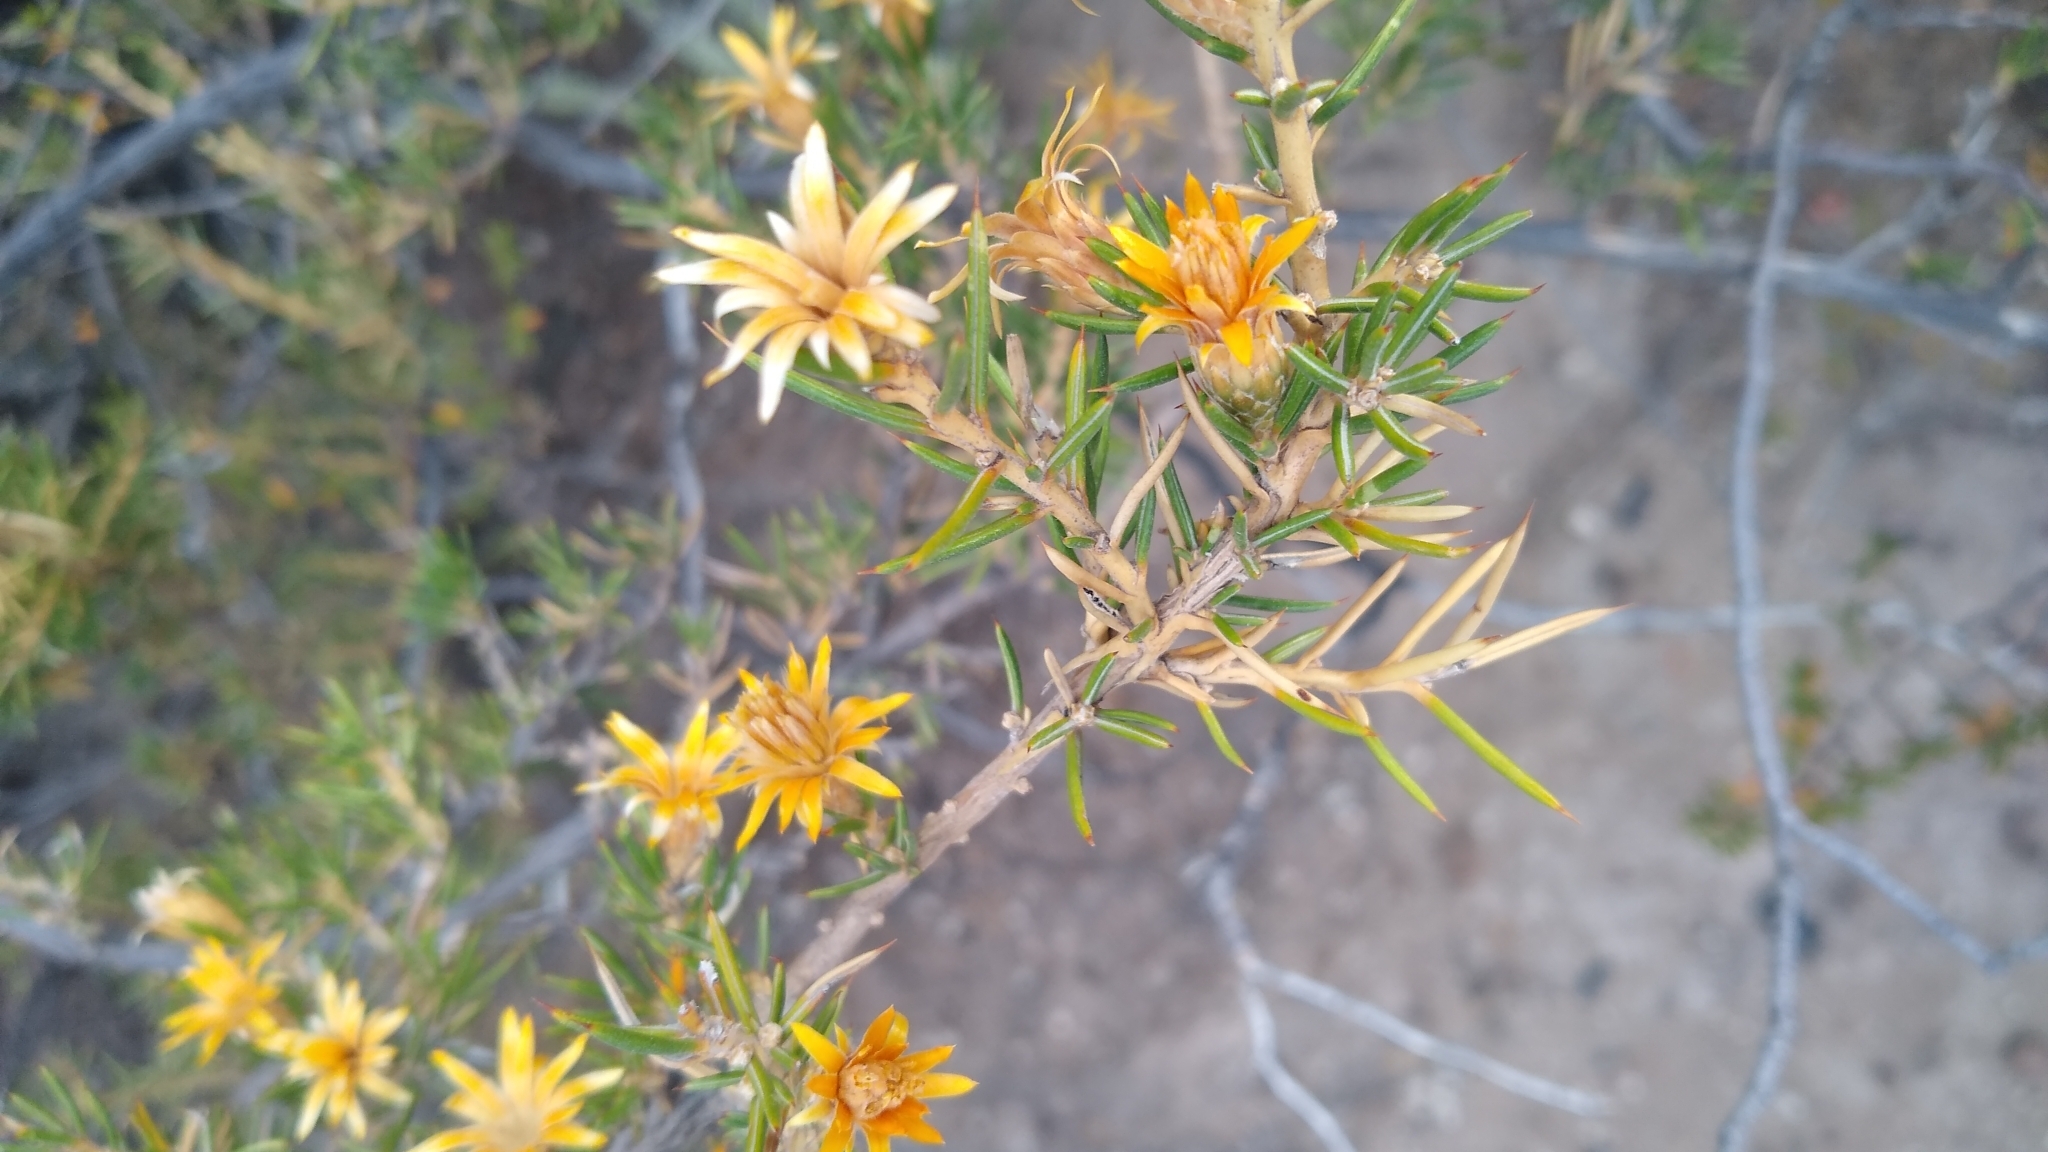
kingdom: Plantae
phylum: Tracheophyta
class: Magnoliopsida
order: Asterales
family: Asteraceae
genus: Chuquiraga
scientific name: Chuquiraga erinacea
